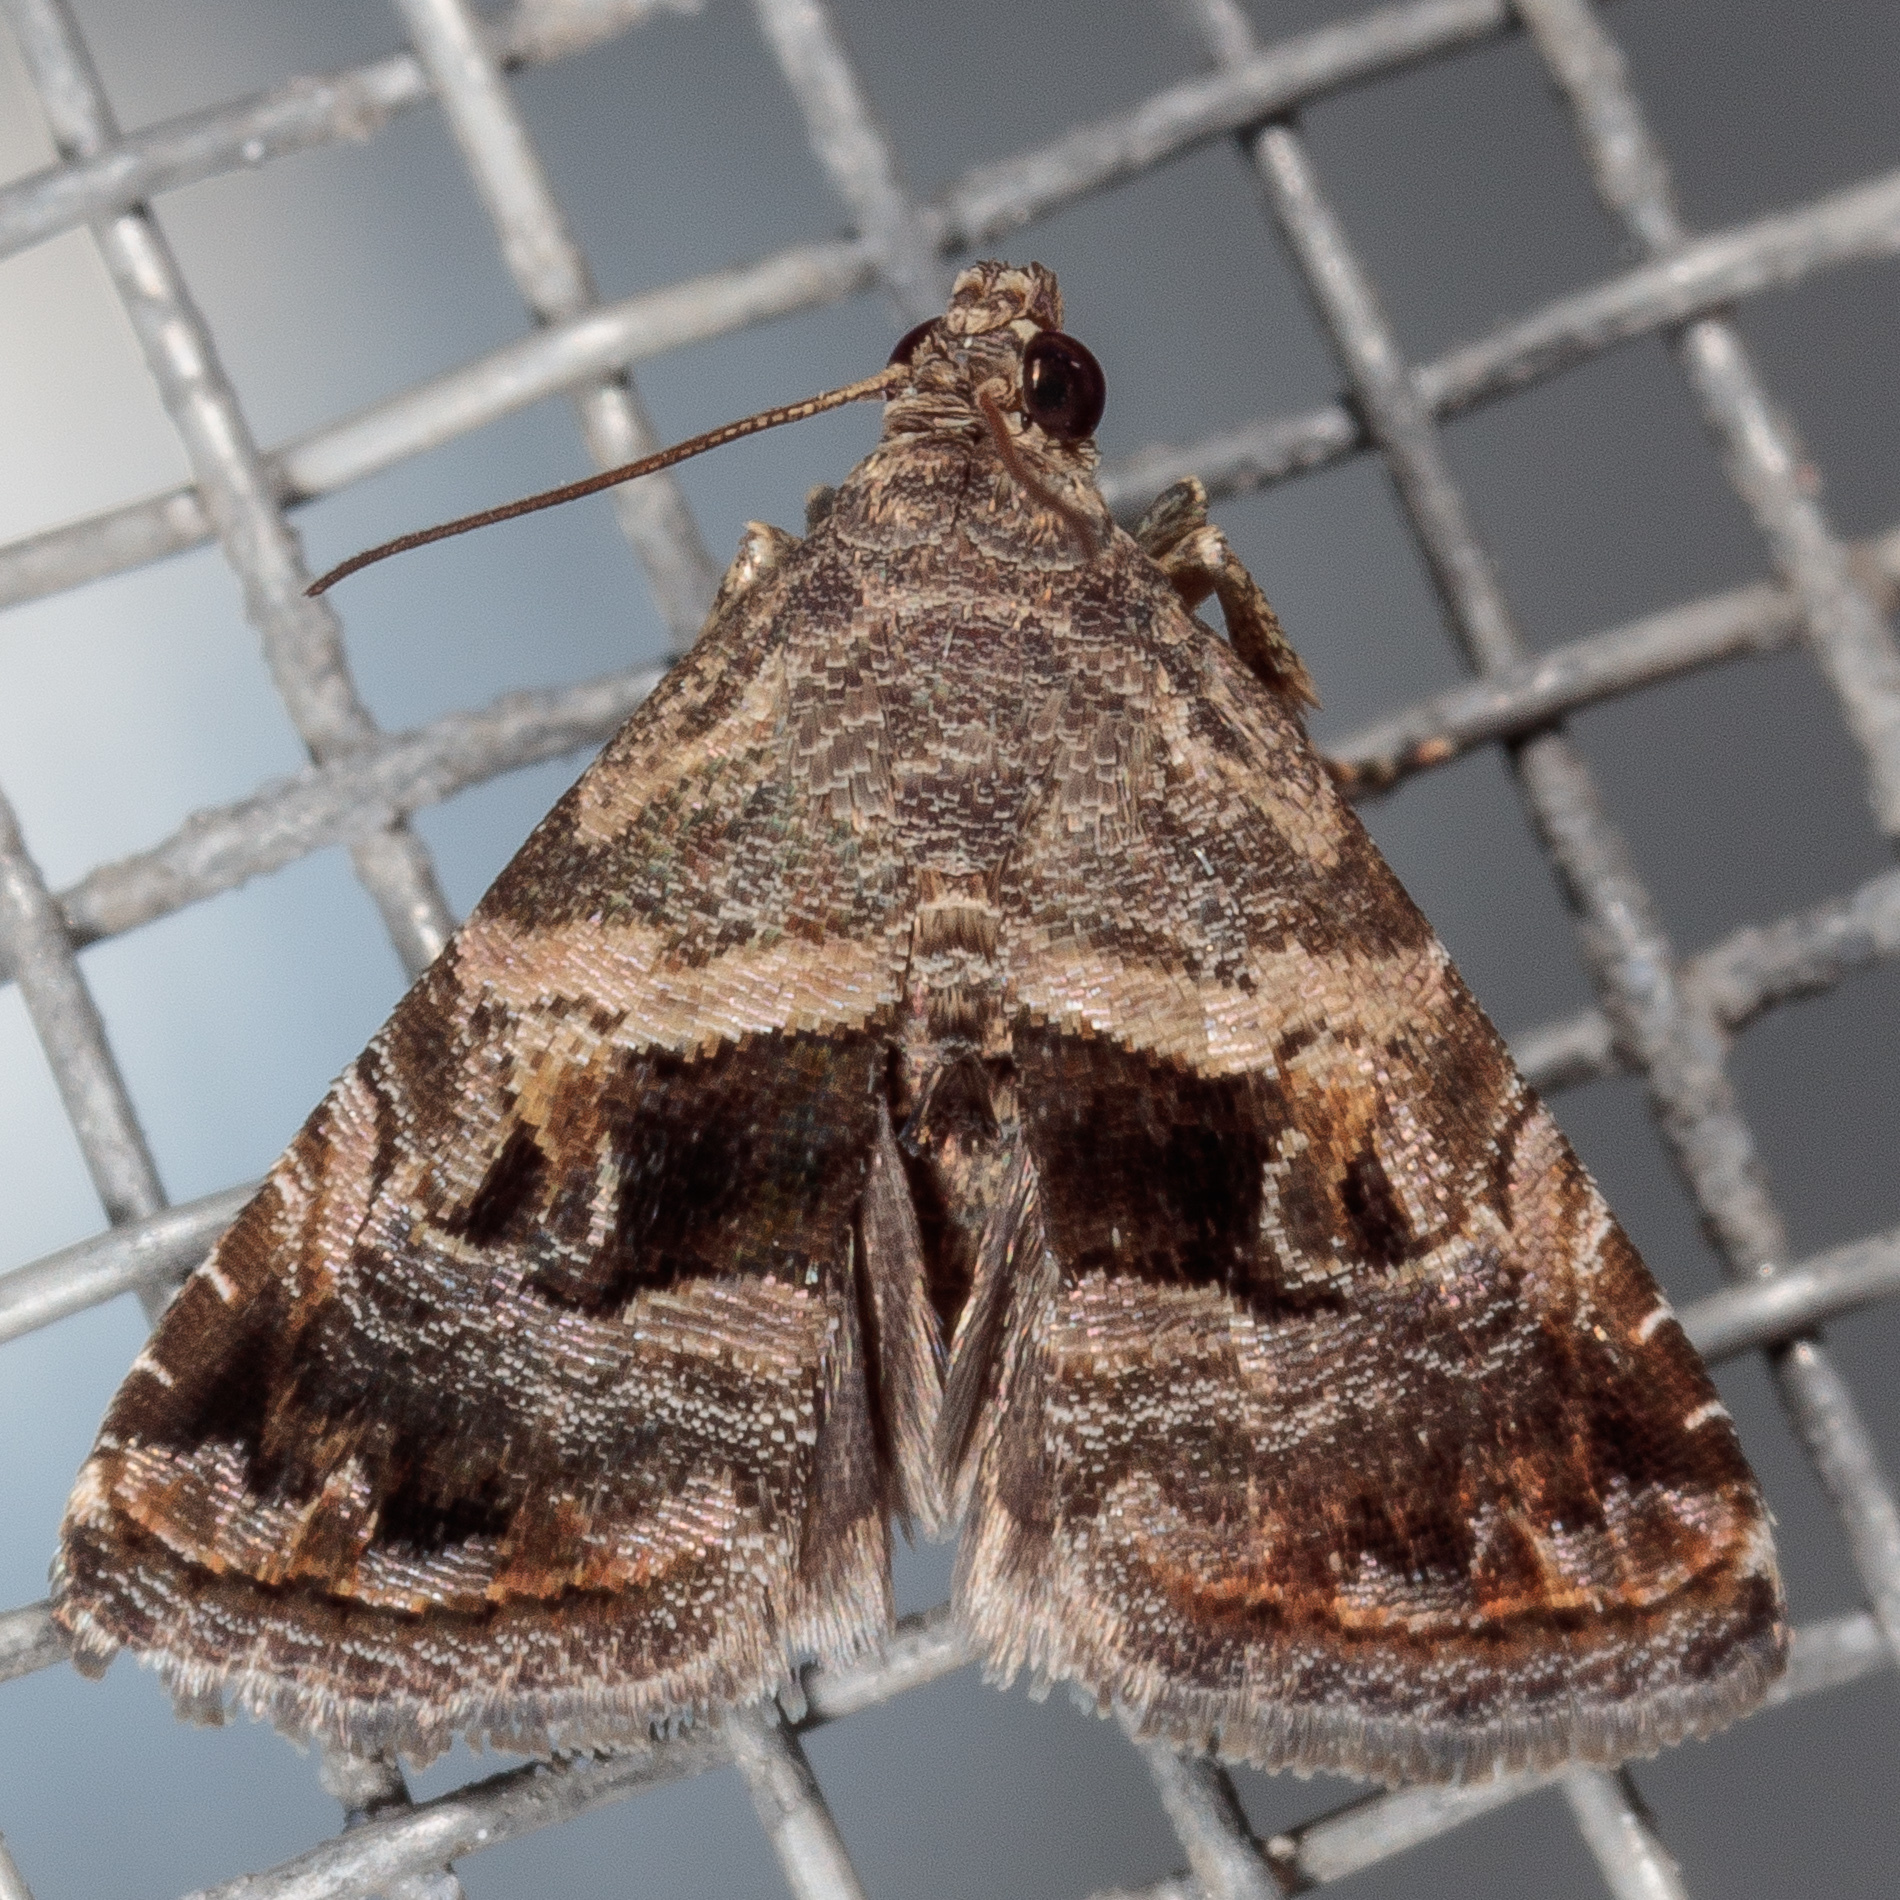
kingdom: Animalia
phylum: Arthropoda
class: Insecta
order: Lepidoptera
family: Noctuidae
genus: Tripudia
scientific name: Tripudia quadrifera
